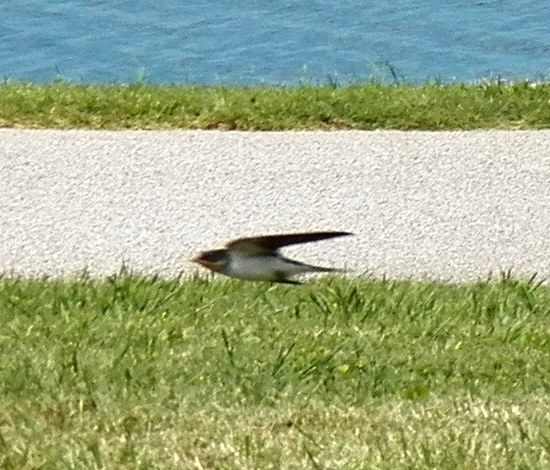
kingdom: Animalia
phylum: Chordata
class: Aves
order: Passeriformes
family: Hirundinidae
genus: Hirundo
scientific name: Hirundo rustica
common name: Barn swallow
